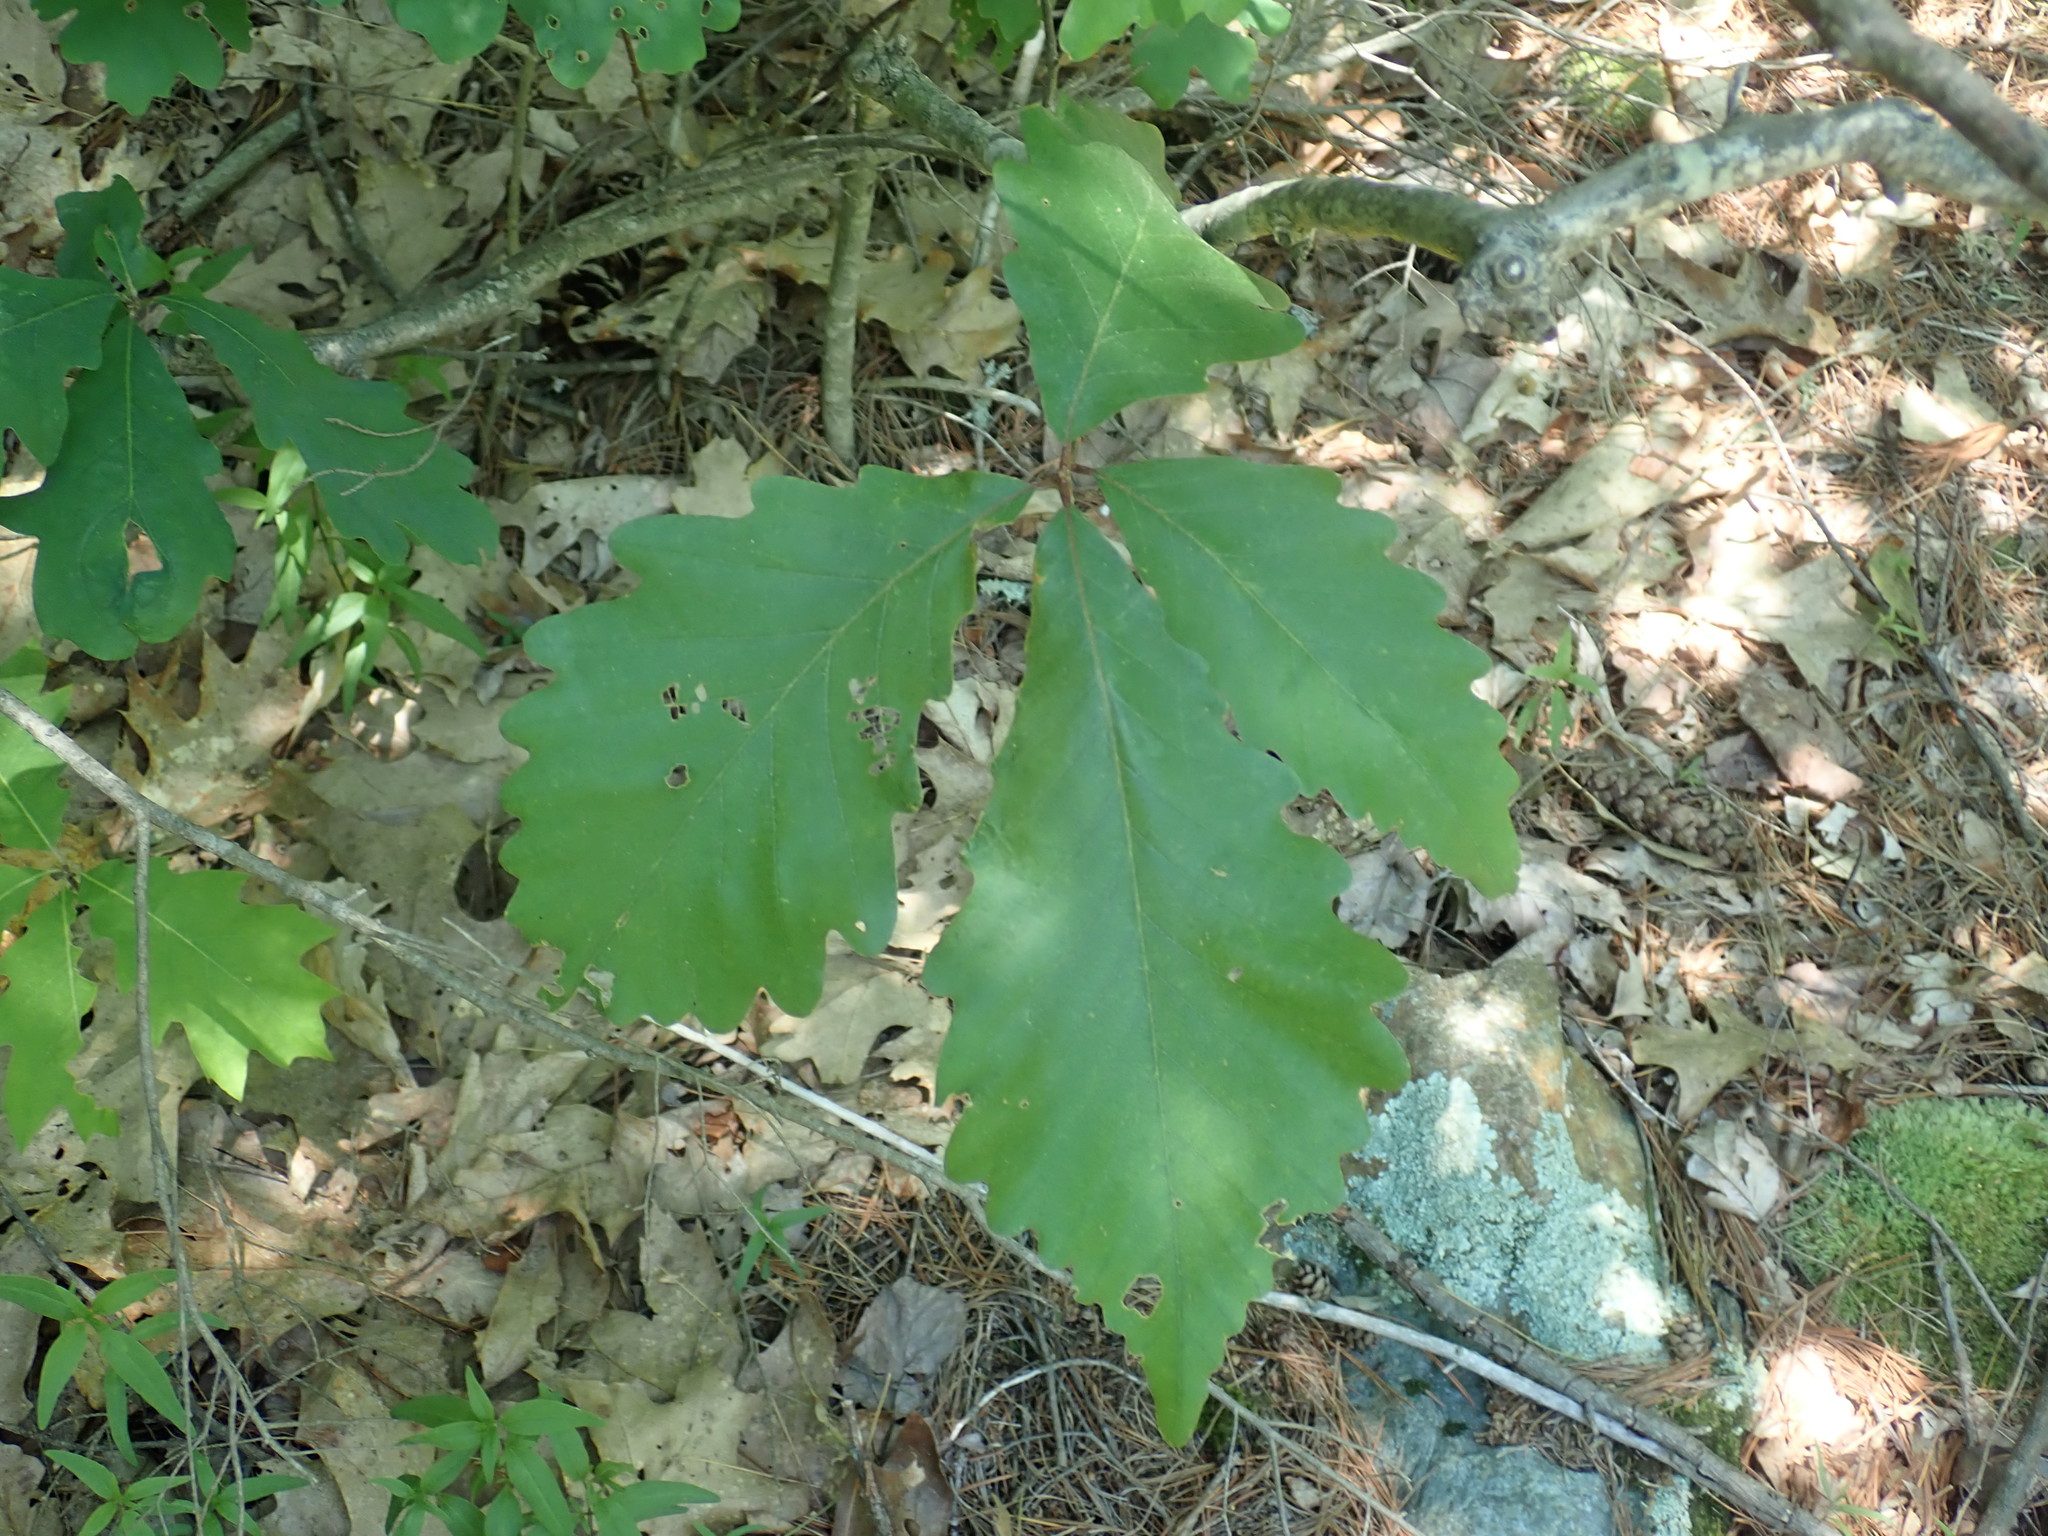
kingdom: Plantae
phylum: Tracheophyta
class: Magnoliopsida
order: Fagales
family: Fagaceae
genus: Quercus
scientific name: Quercus montana
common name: Chestnut oak
